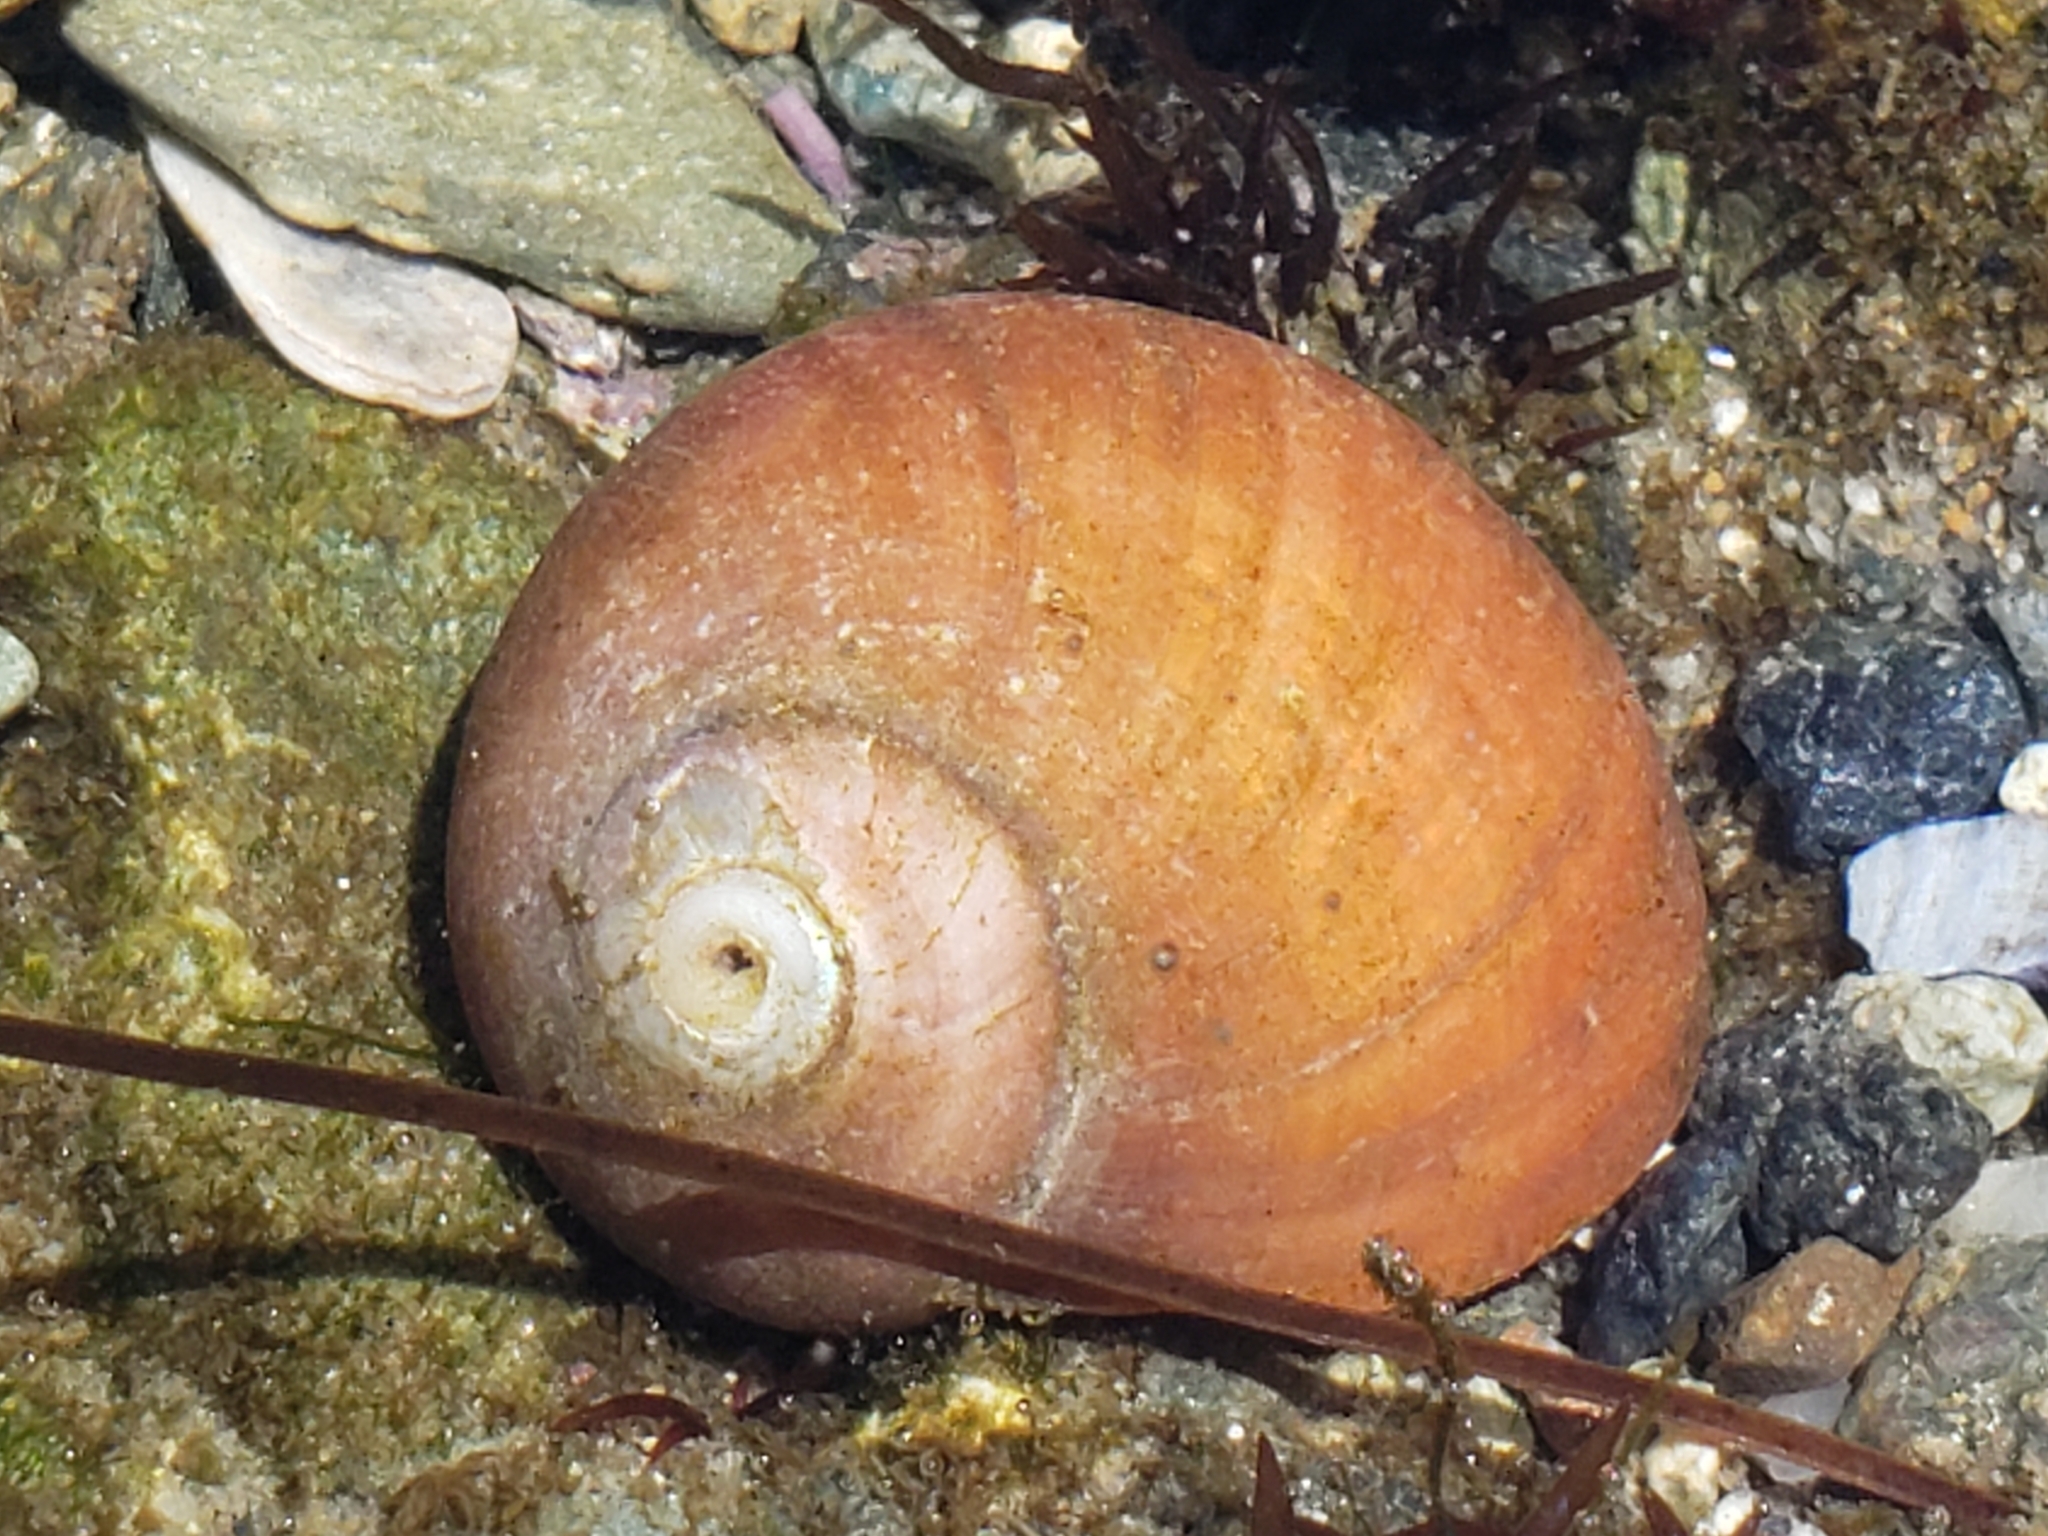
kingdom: Animalia
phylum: Mollusca
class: Gastropoda
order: Trochida
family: Tegulidae
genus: Norrisia
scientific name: Norrisia norrisii
